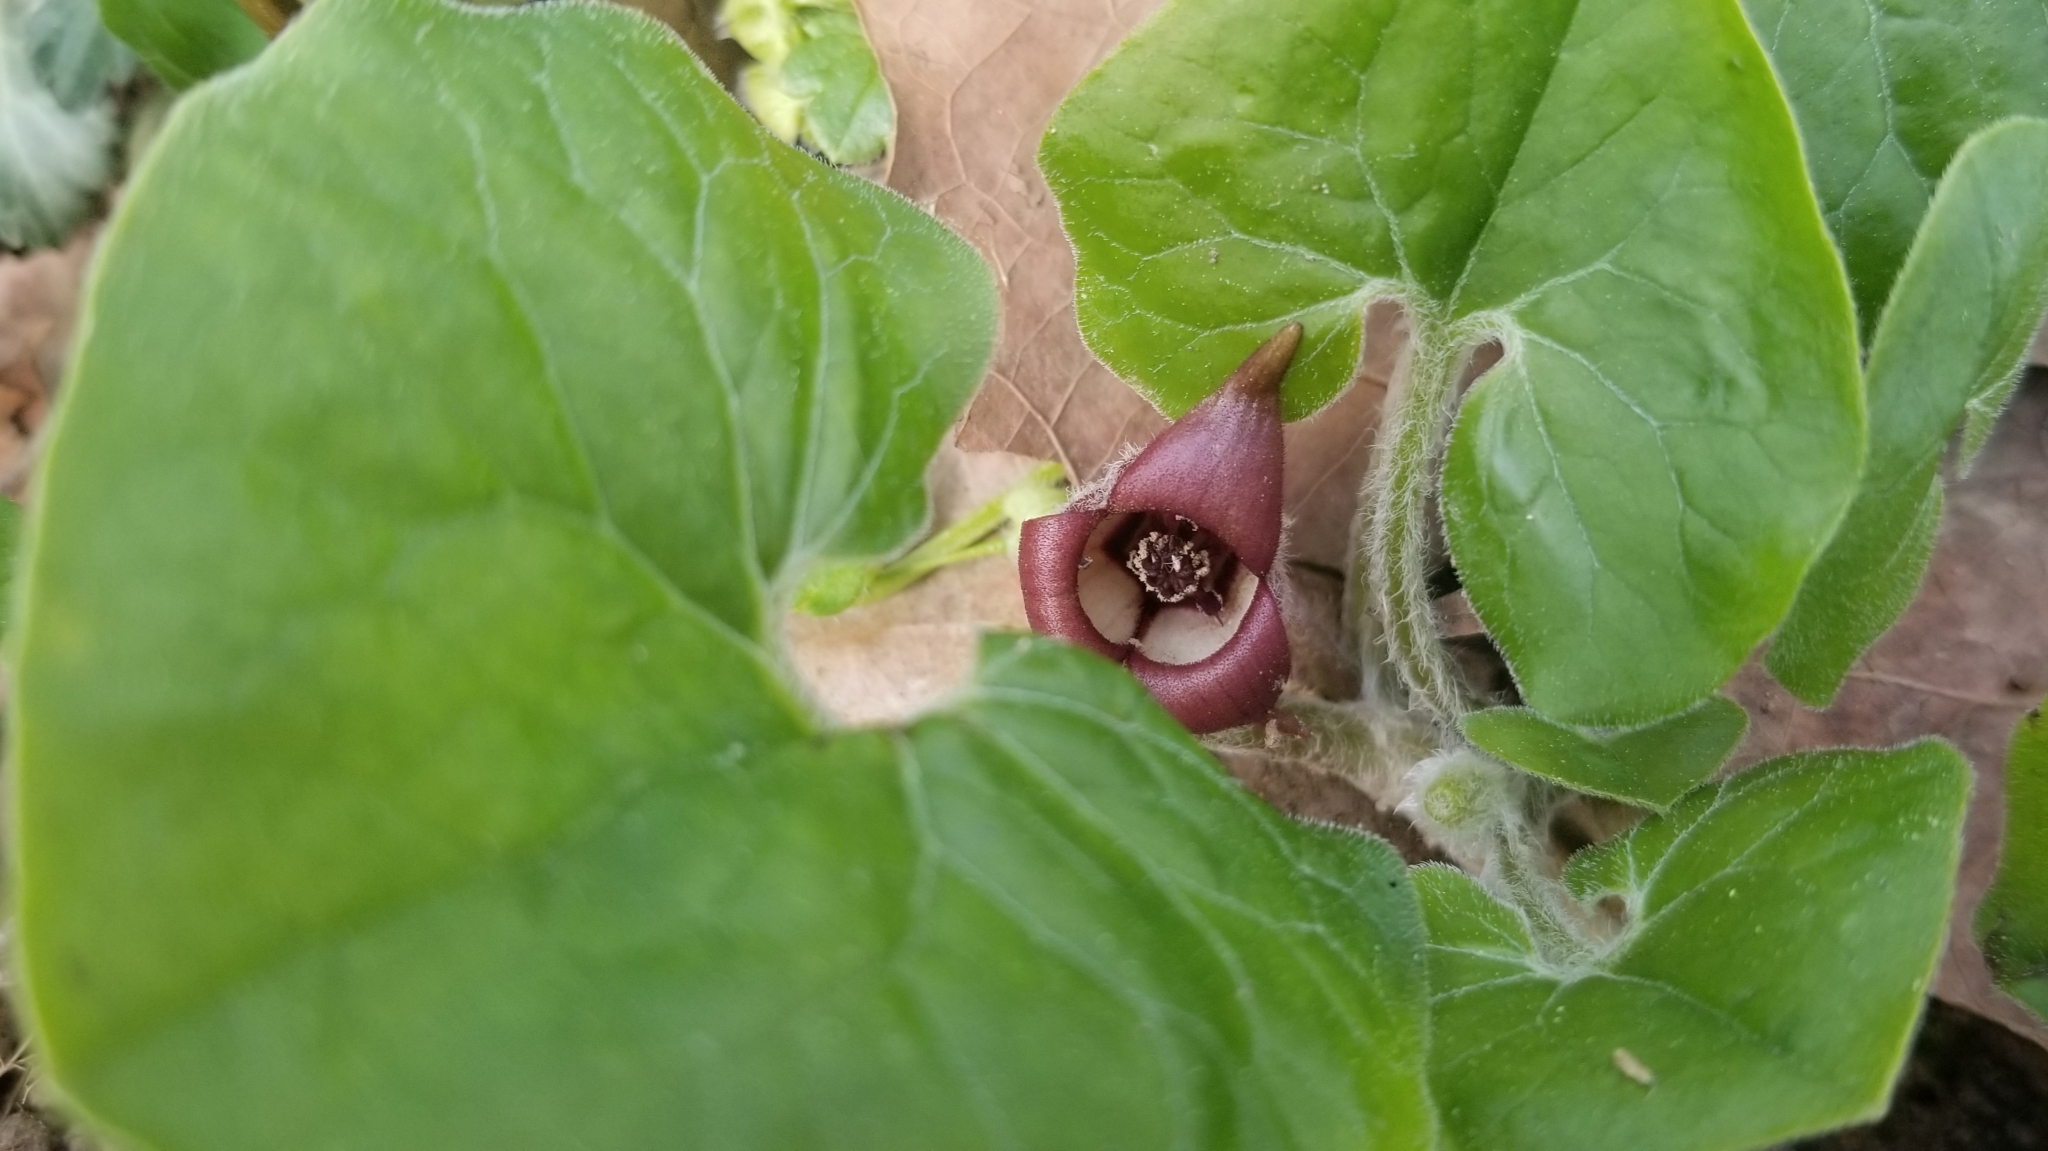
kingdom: Plantae
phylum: Tracheophyta
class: Magnoliopsida
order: Piperales
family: Aristolochiaceae
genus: Asarum
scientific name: Asarum canadense
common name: Wild ginger
